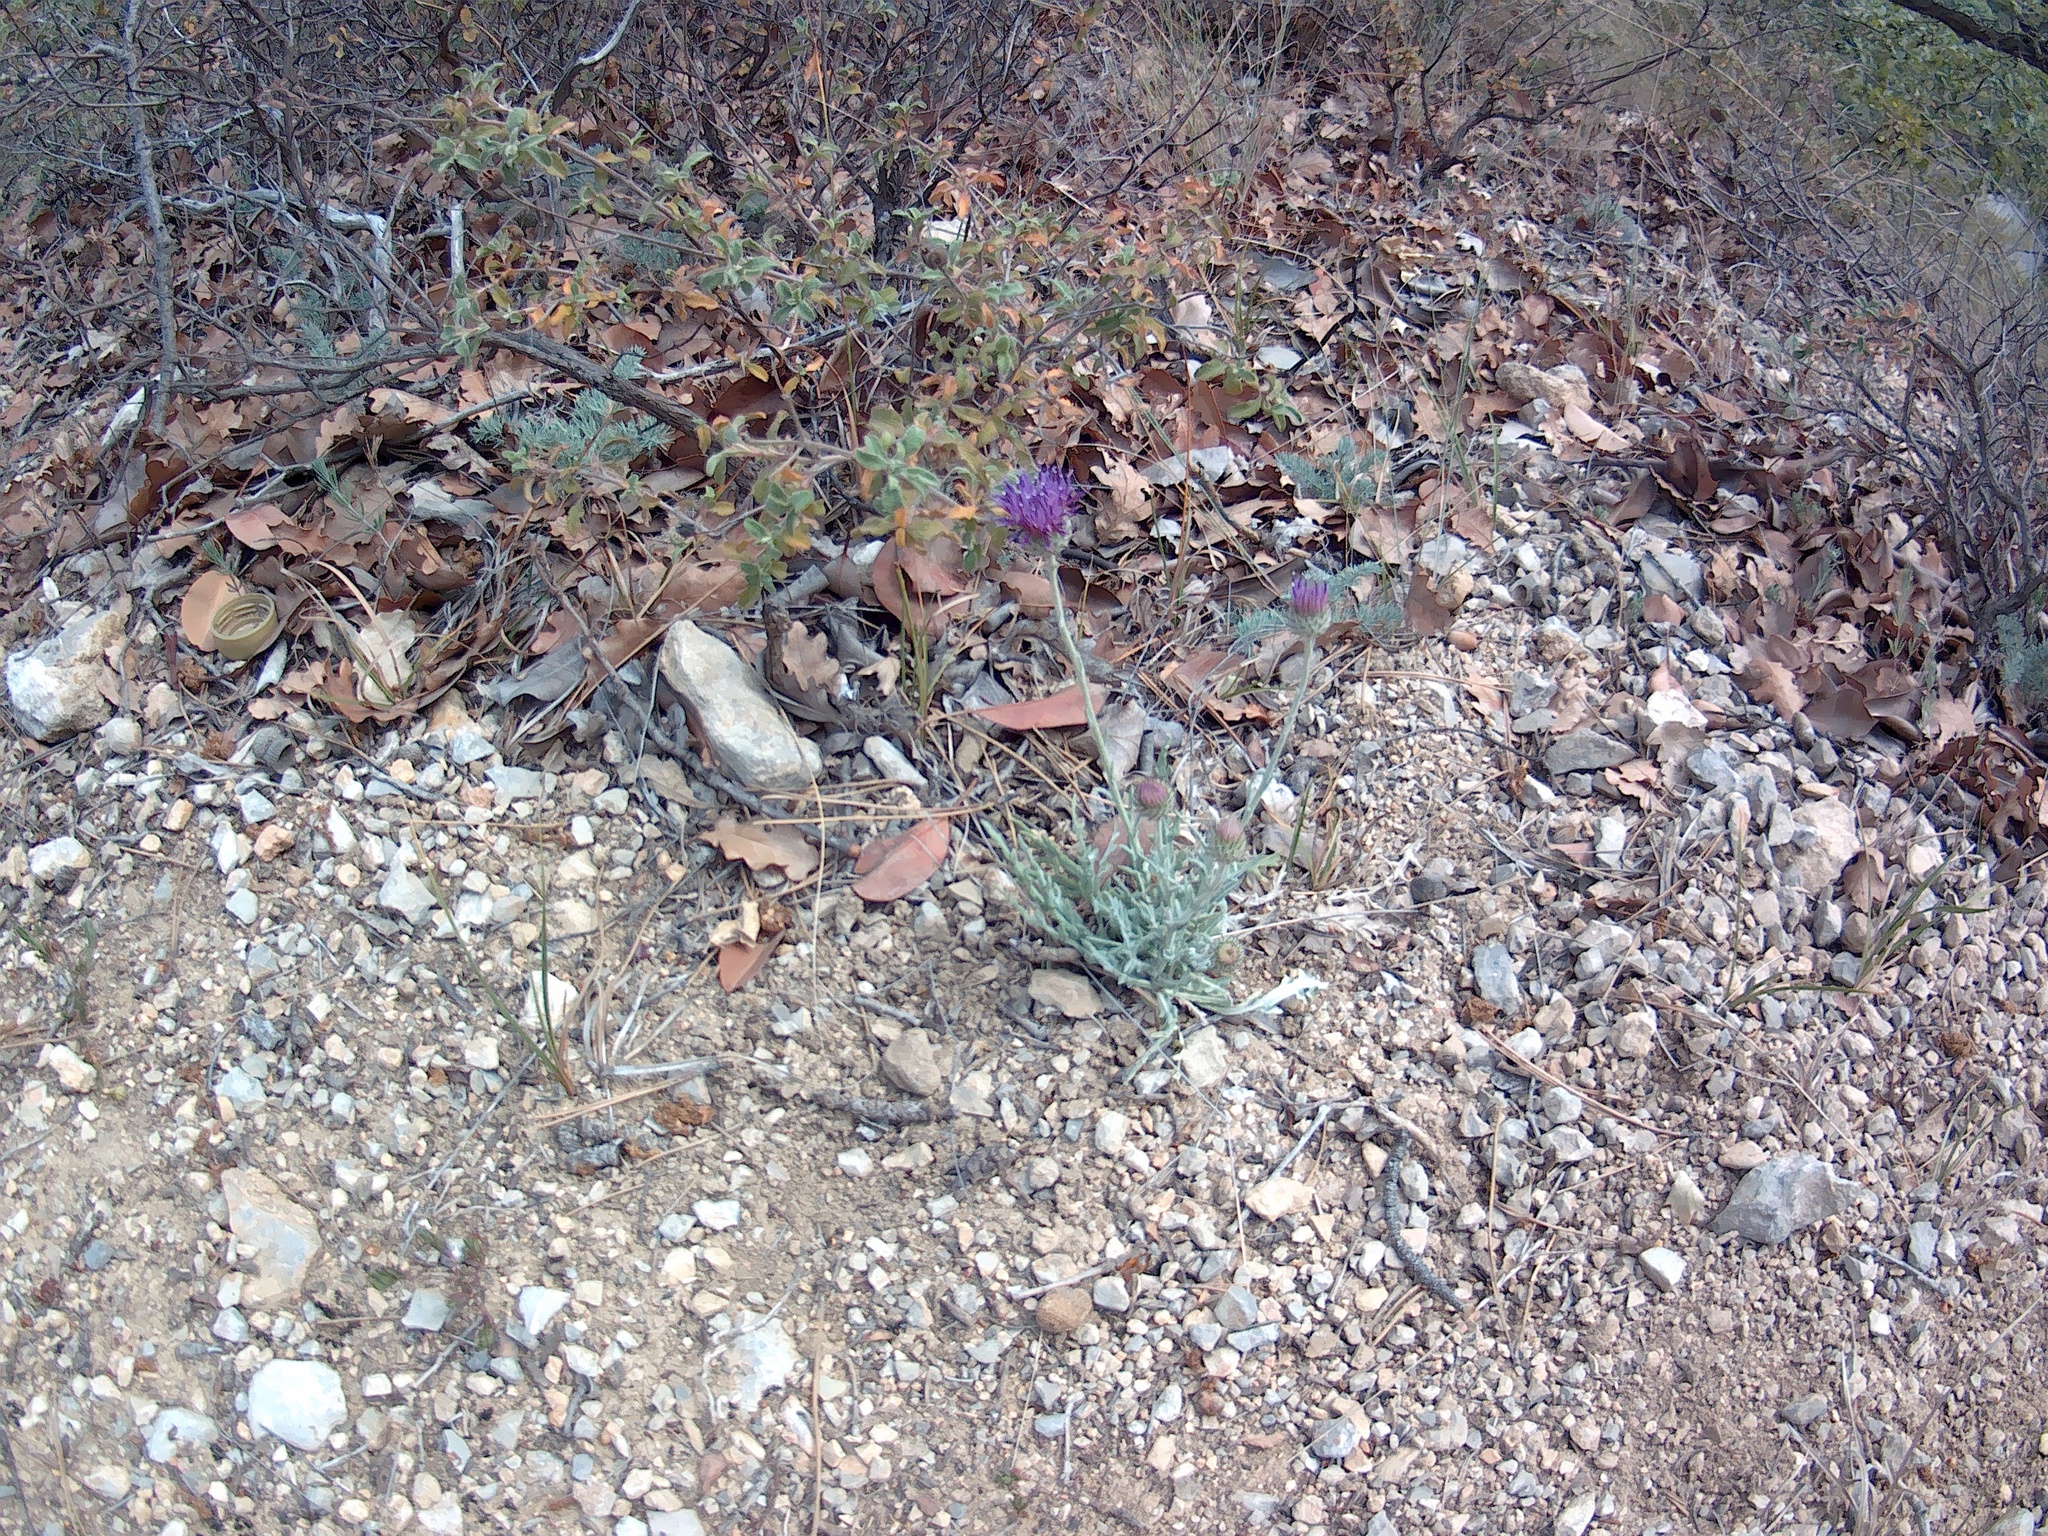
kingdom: Plantae
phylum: Tracheophyta
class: Magnoliopsida
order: Asterales
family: Asteraceae
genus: Jurinea
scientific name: Jurinea roegneri
